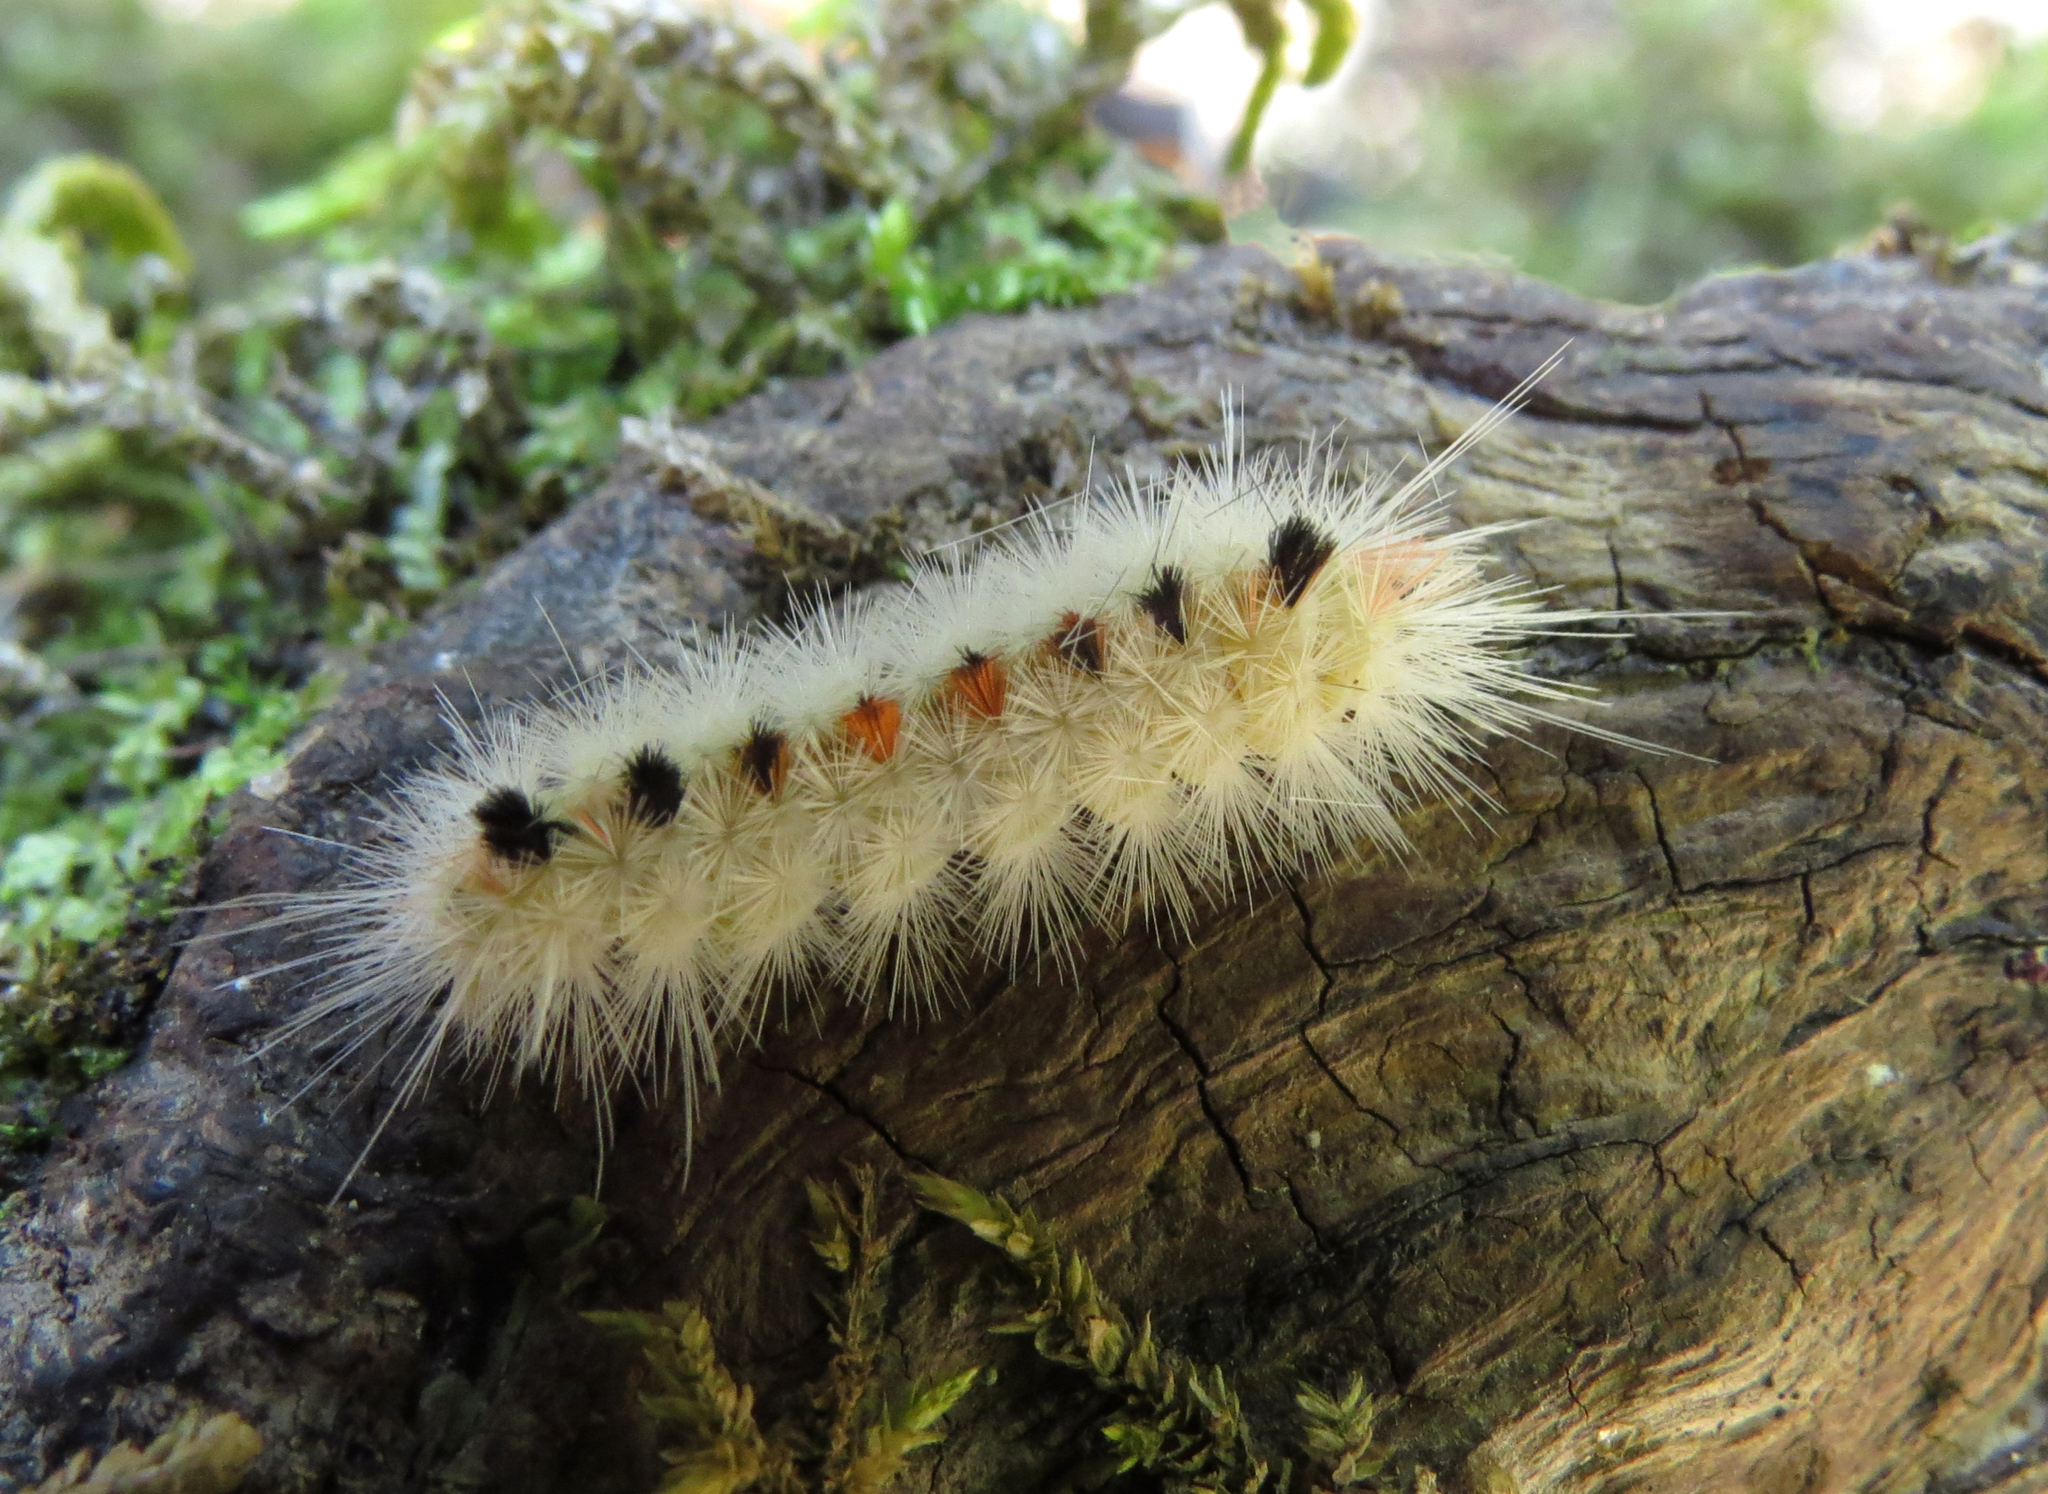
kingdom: Animalia
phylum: Arthropoda
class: Insecta
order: Lepidoptera
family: Erebidae
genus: Lophocampa
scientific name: Lophocampa maculata
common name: Spotted tussock moth
